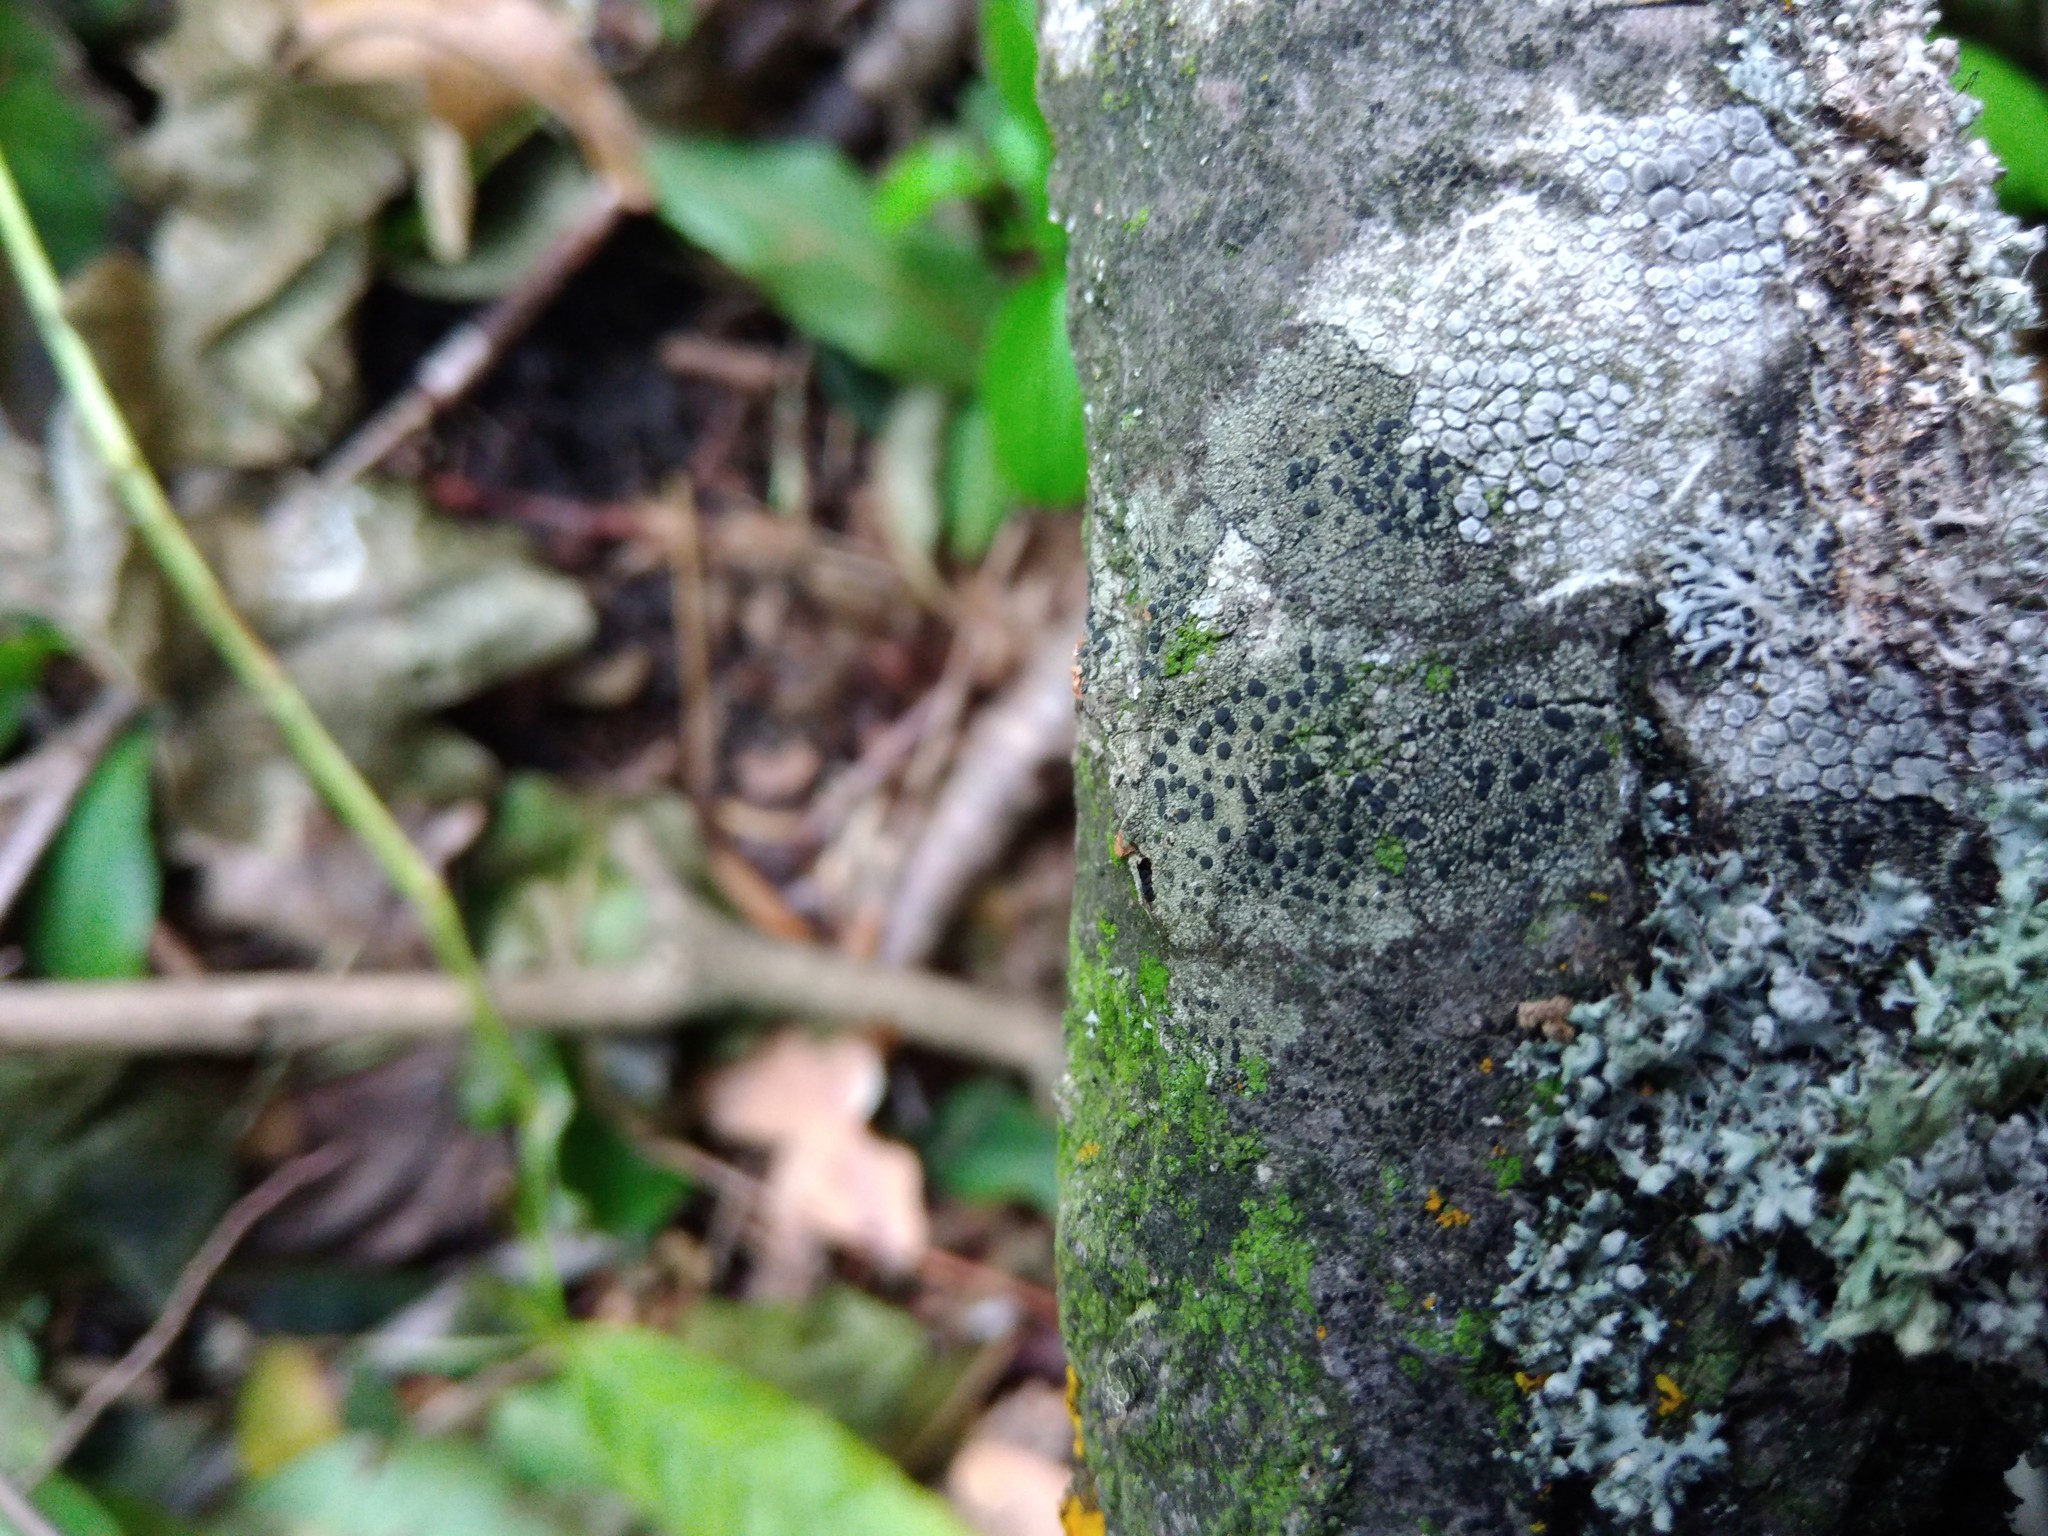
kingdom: Fungi
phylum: Ascomycota
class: Lecanoromycetes
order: Lecanorales
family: Lecanoraceae
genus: Lecidella
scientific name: Lecidella elaeochroma
